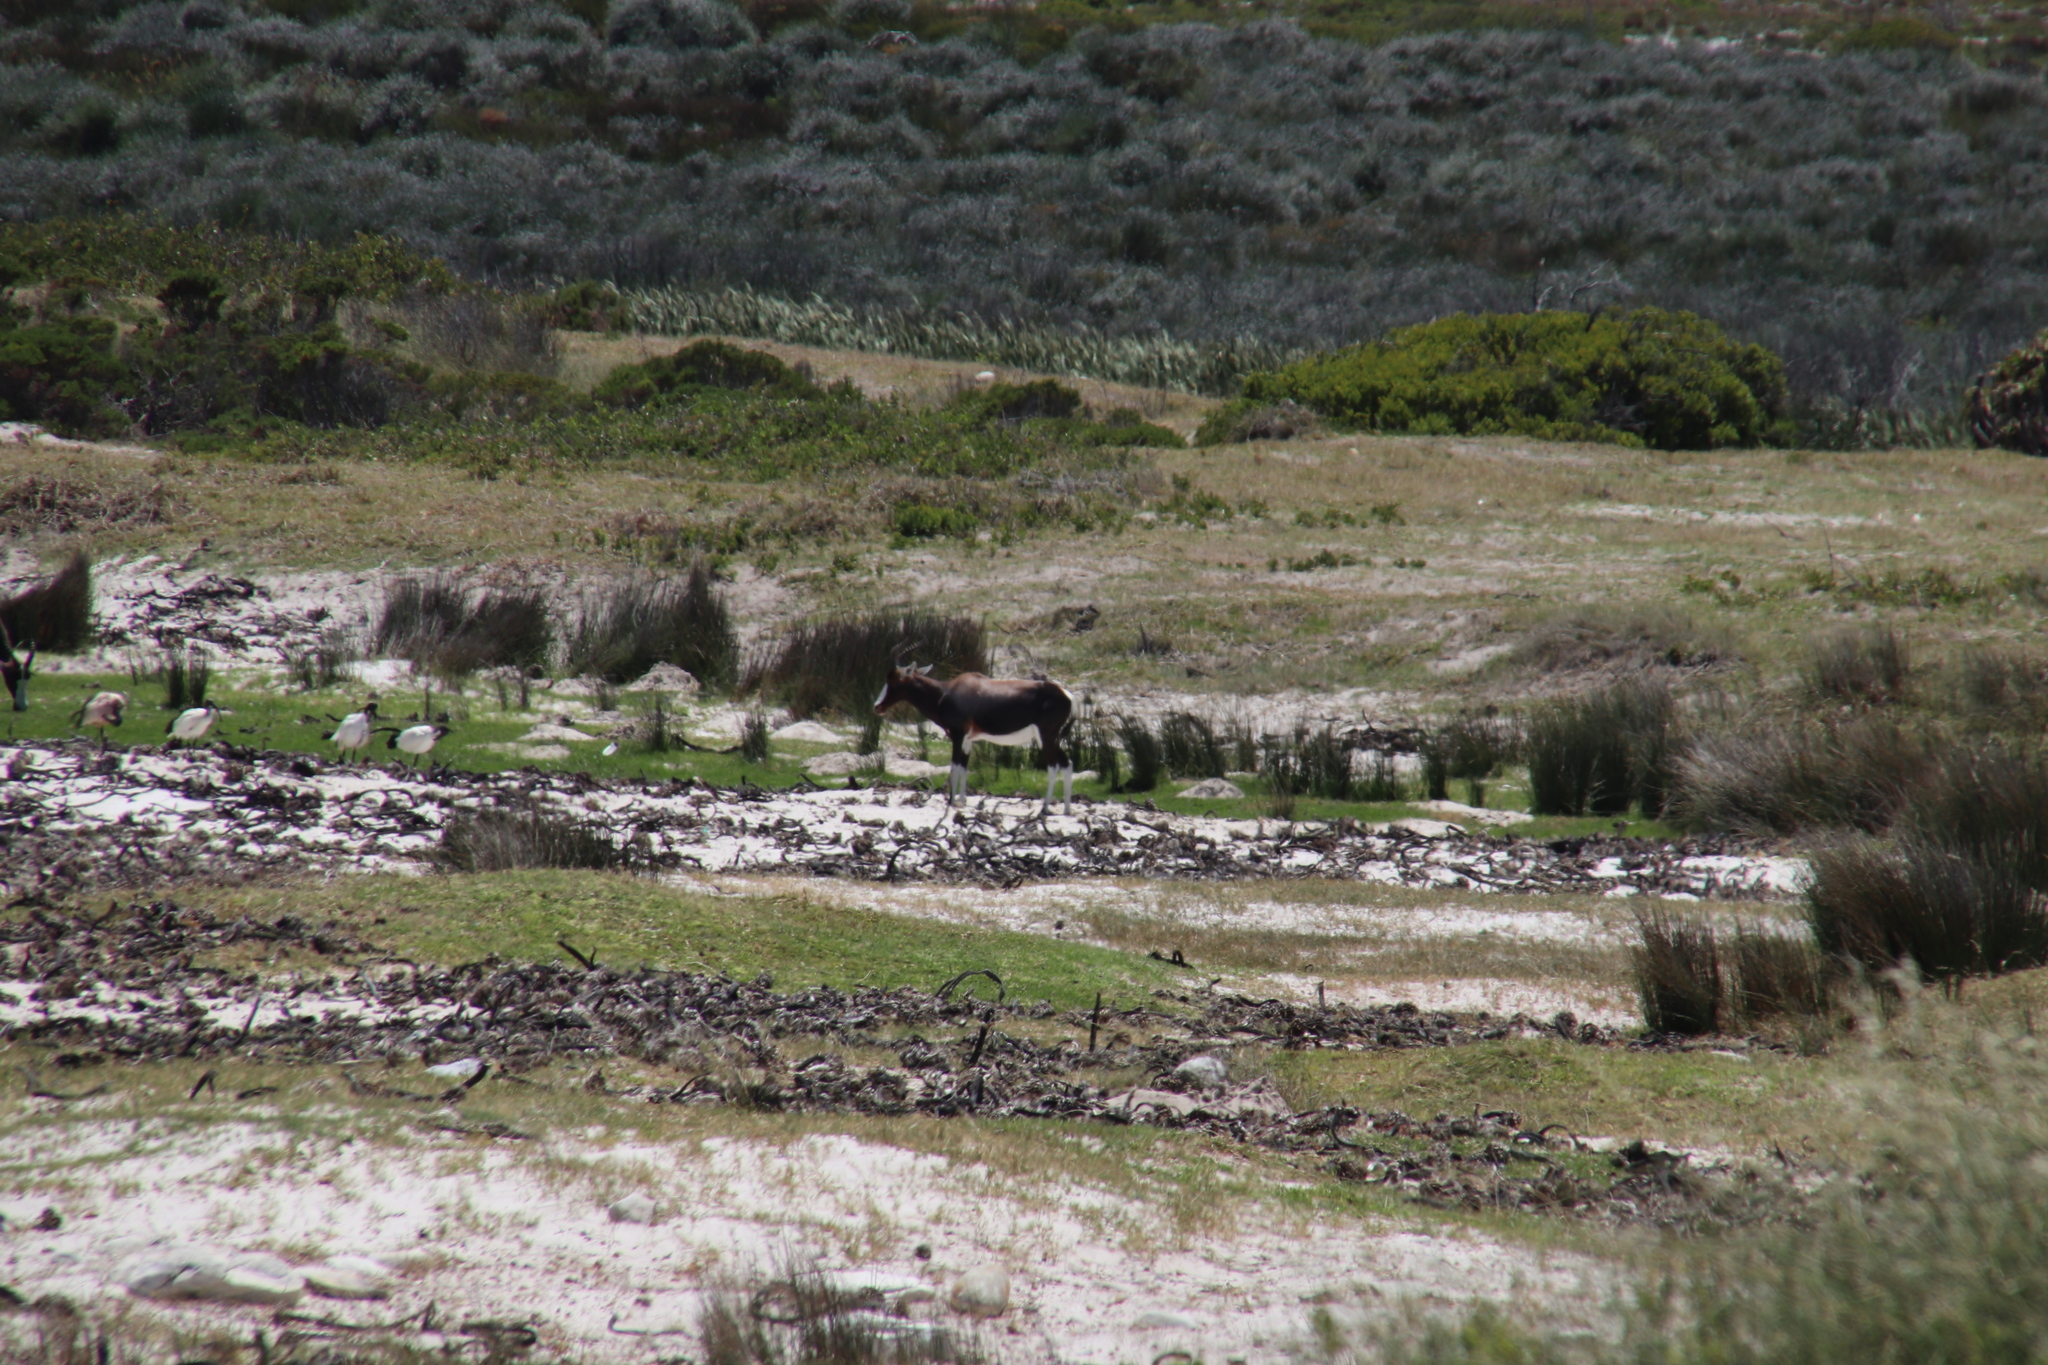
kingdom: Animalia
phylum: Chordata
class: Mammalia
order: Artiodactyla
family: Bovidae
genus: Damaliscus
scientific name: Damaliscus pygargus
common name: Bontebok
